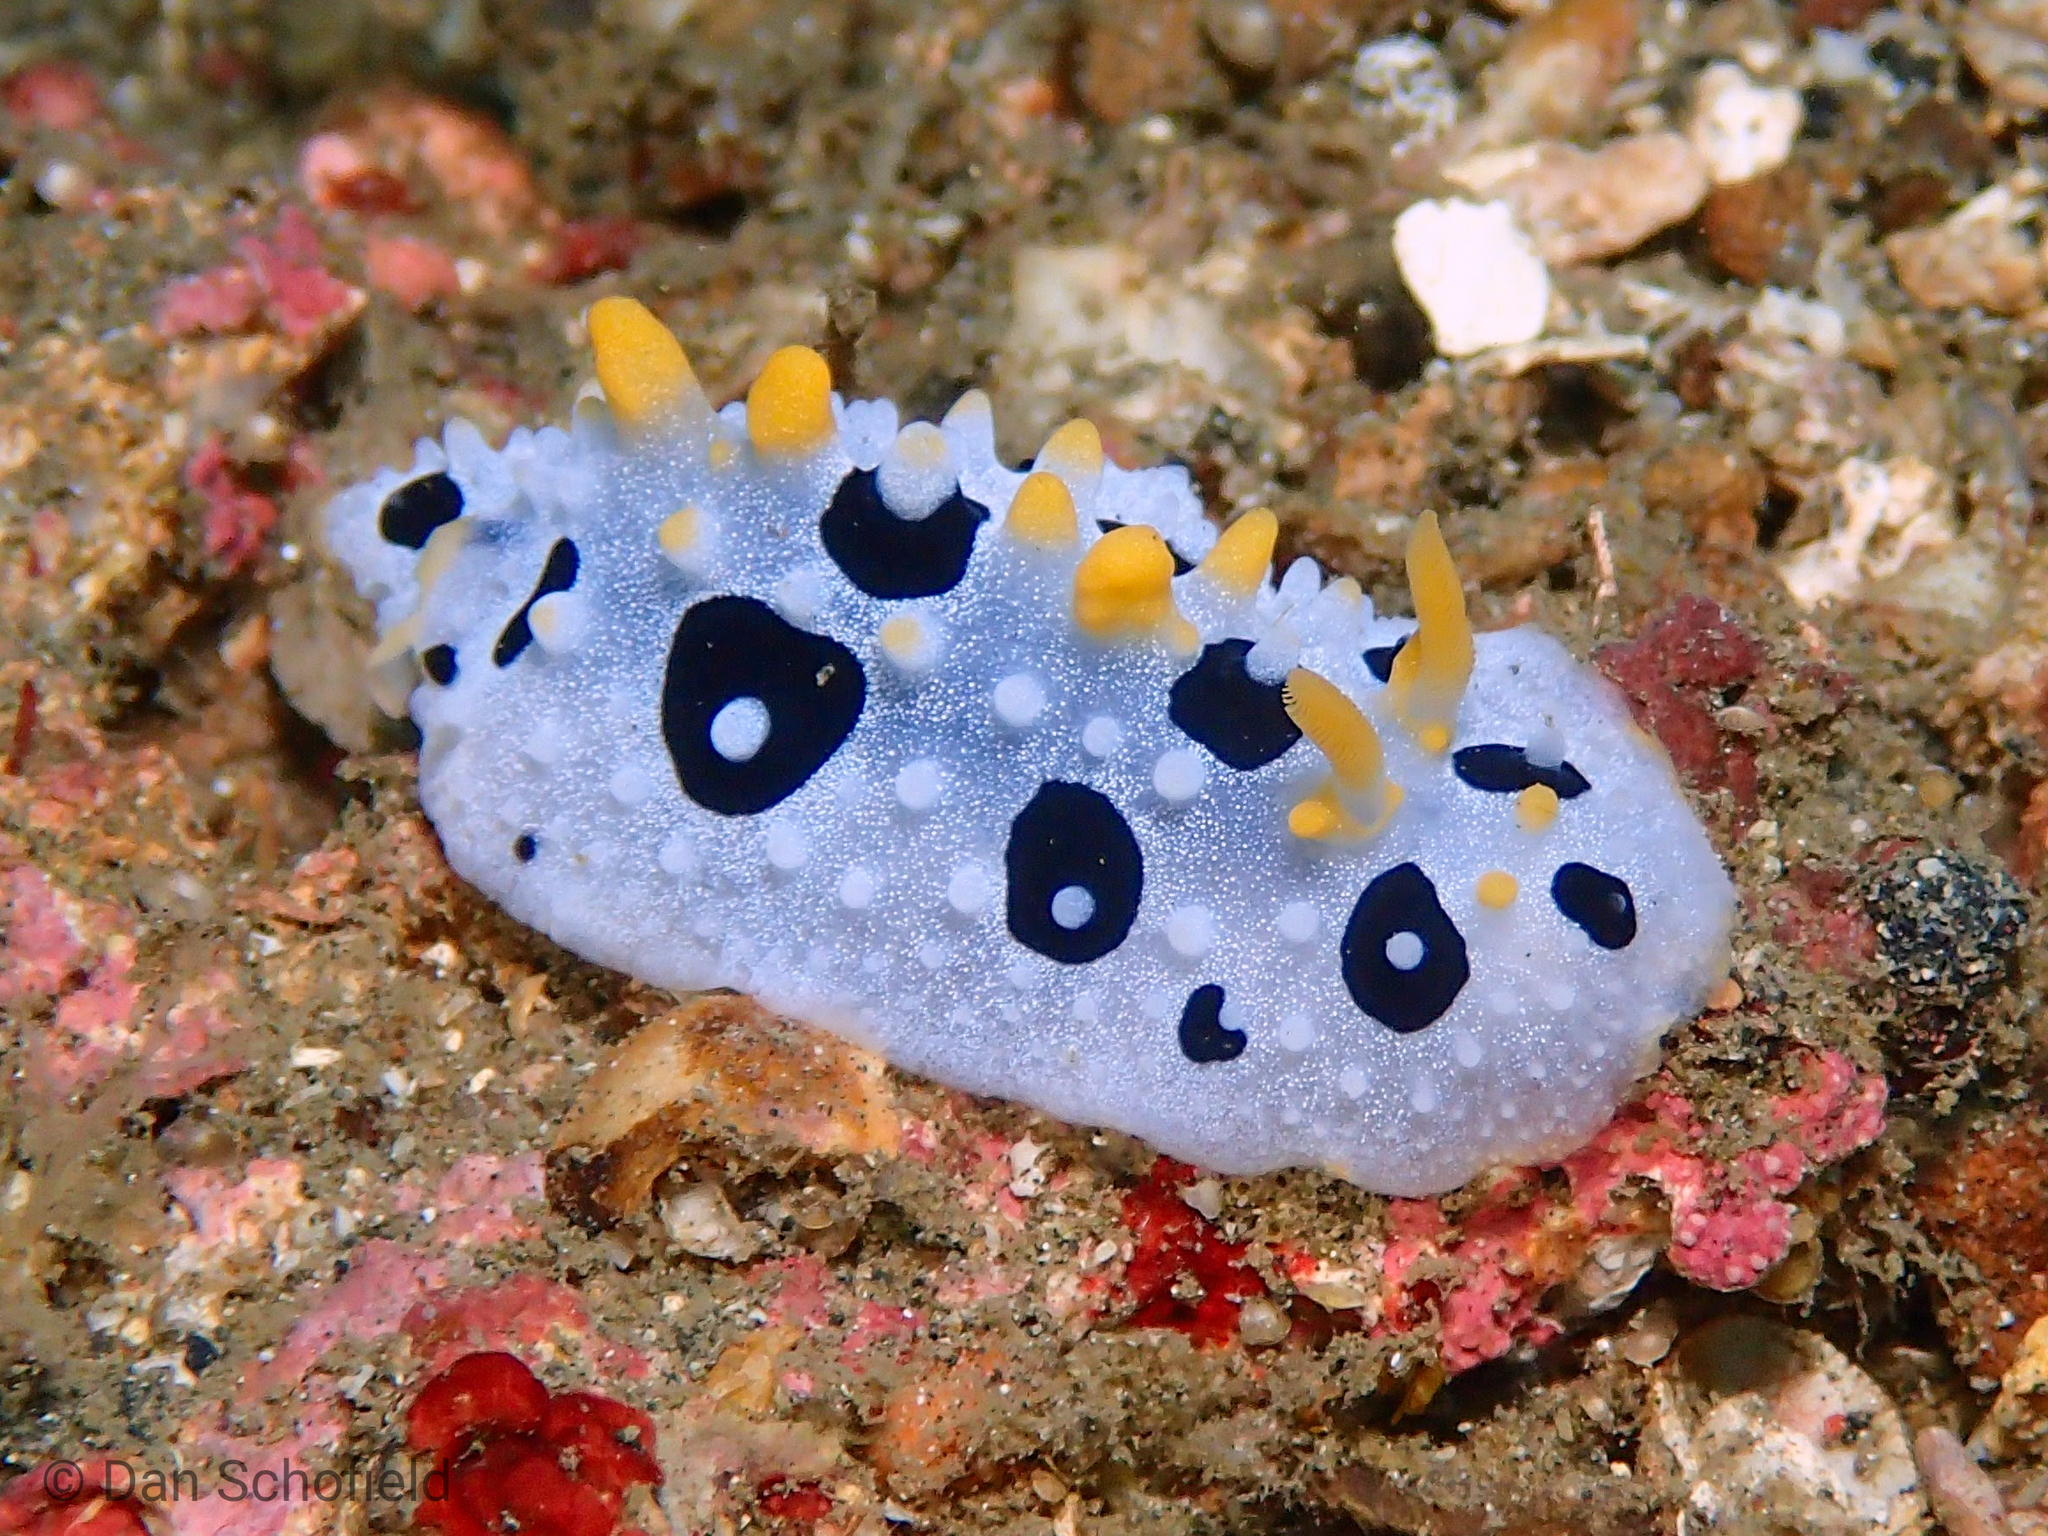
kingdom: Animalia
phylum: Mollusca
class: Gastropoda
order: Nudibranchia
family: Phyllidiidae
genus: Phyllidia
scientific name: Phyllidia babai
